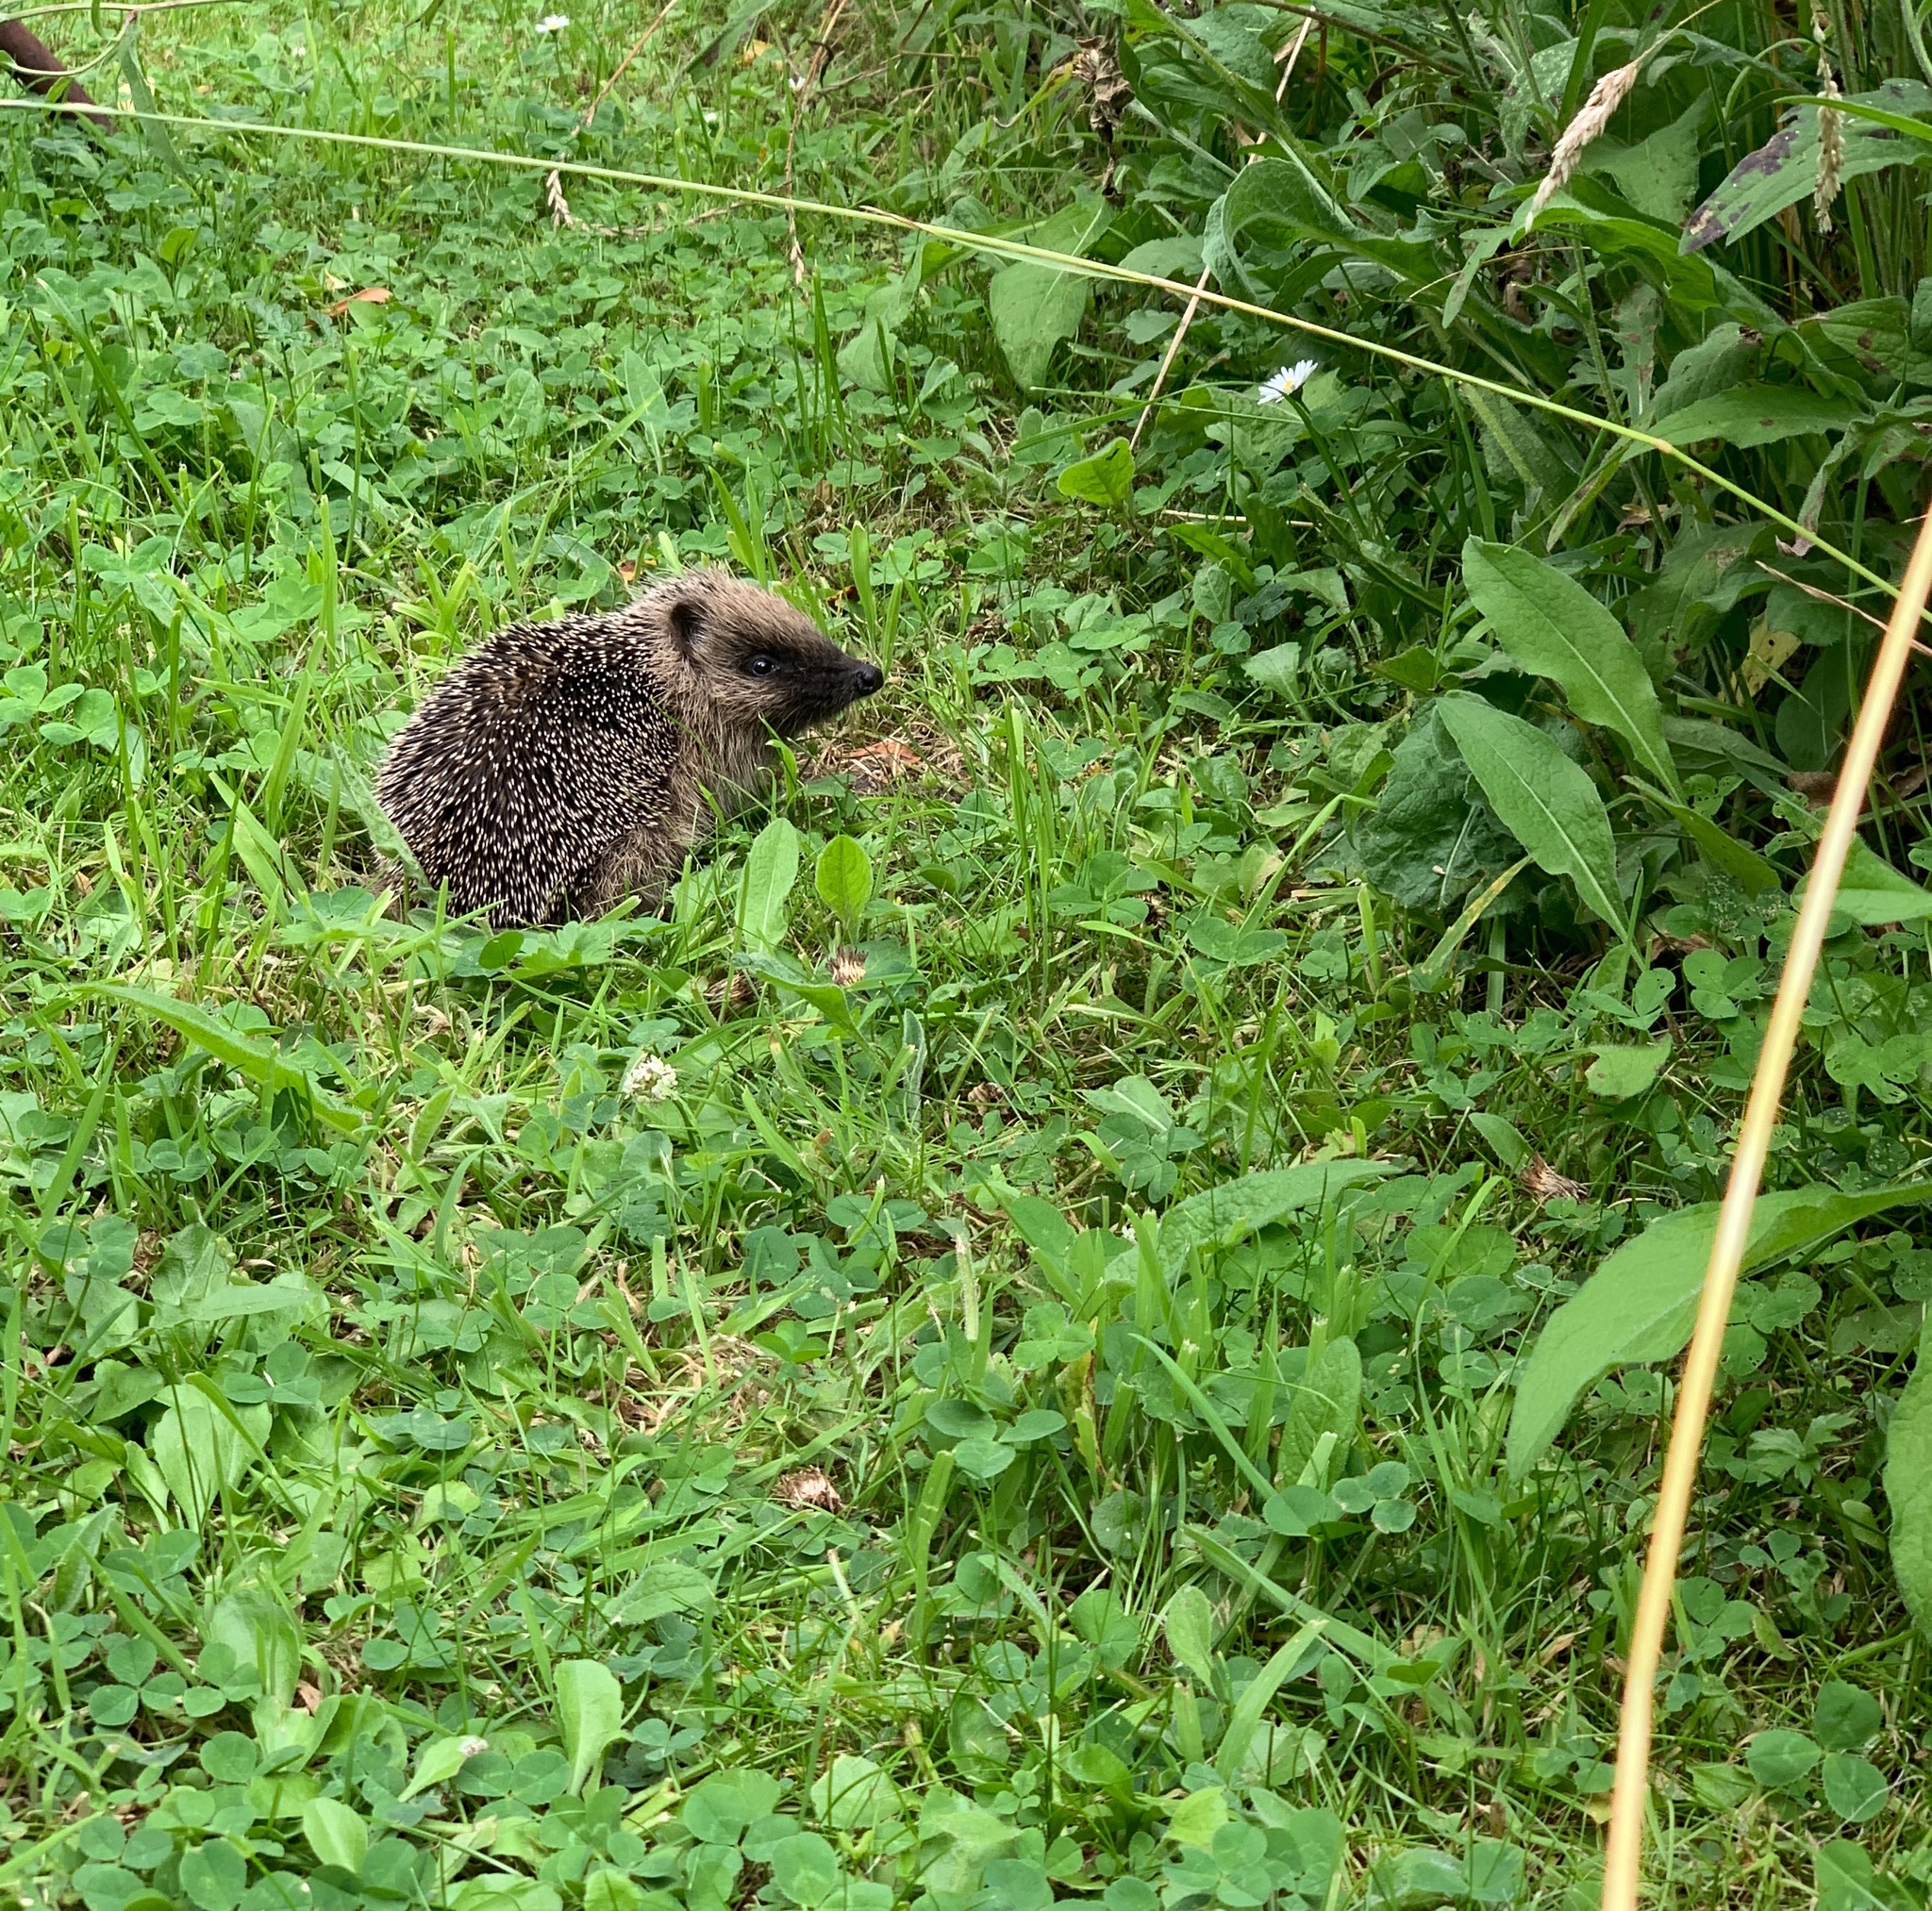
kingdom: Animalia
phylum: Chordata
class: Mammalia
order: Erinaceomorpha
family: Erinaceidae
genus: Erinaceus
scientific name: Erinaceus europaeus
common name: West european hedgehog
